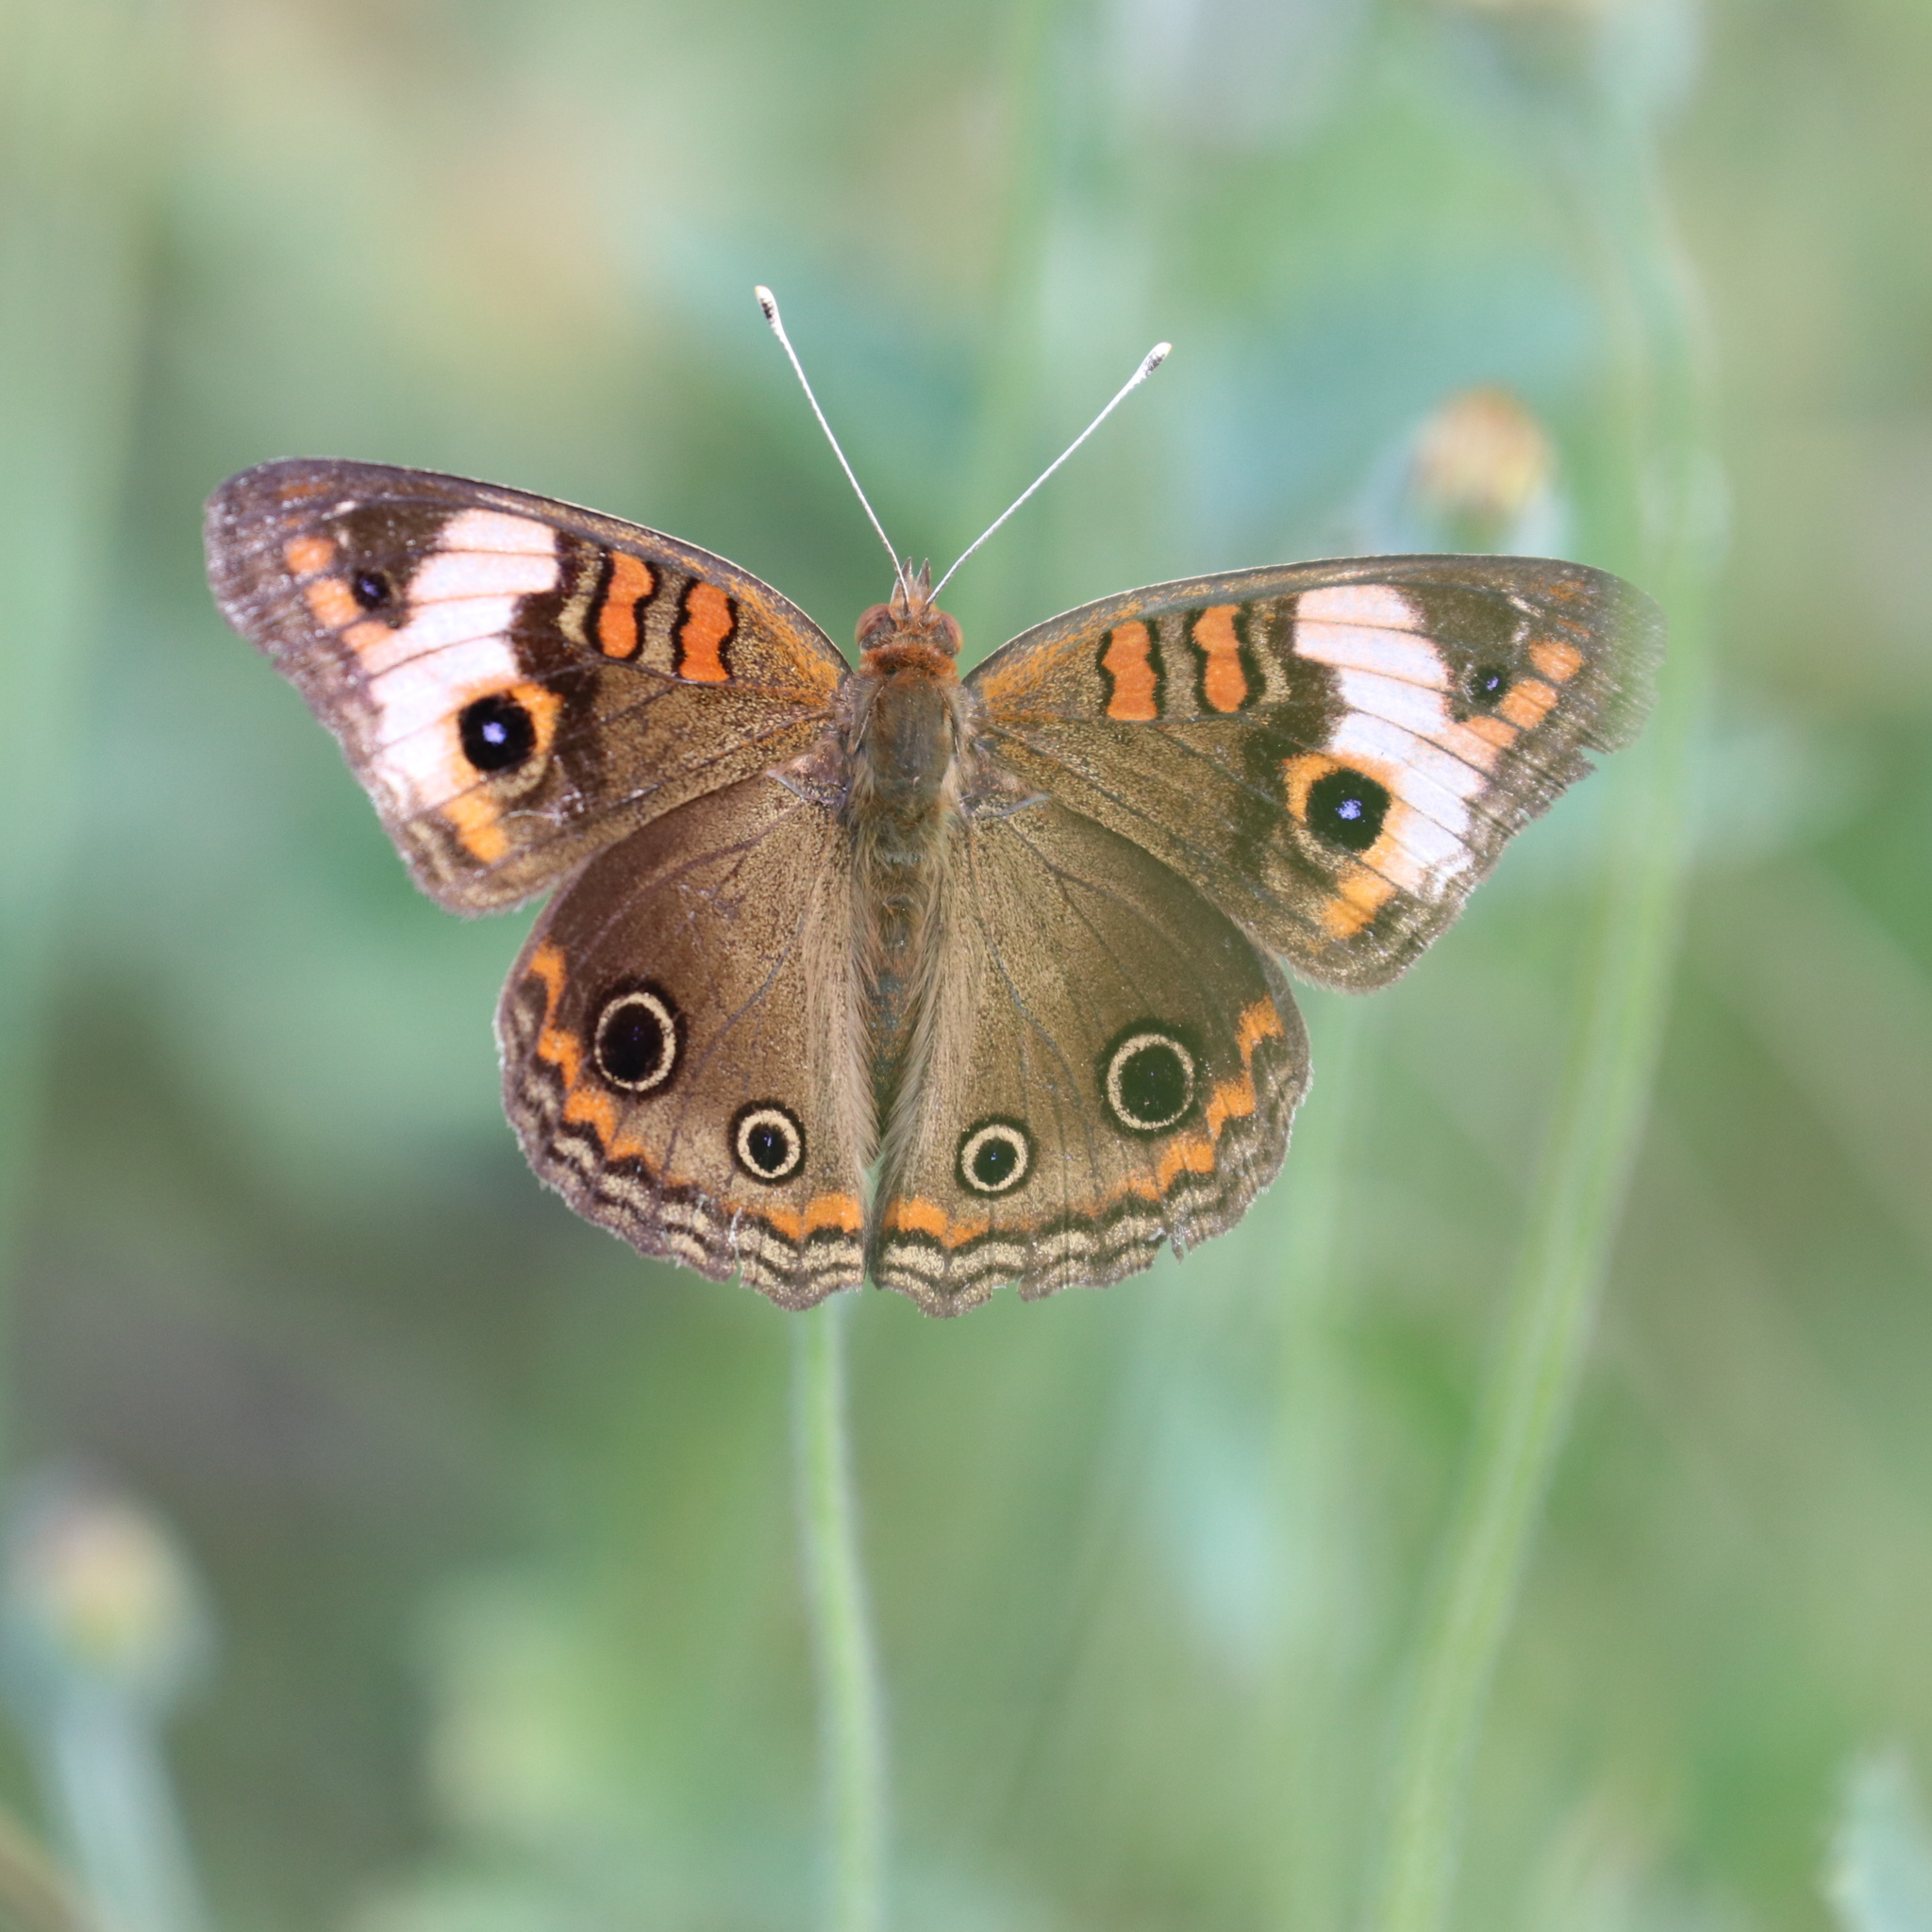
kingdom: Animalia
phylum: Arthropoda
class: Insecta
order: Lepidoptera
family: Nymphalidae
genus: Junonia
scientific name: Junonia lavinia
